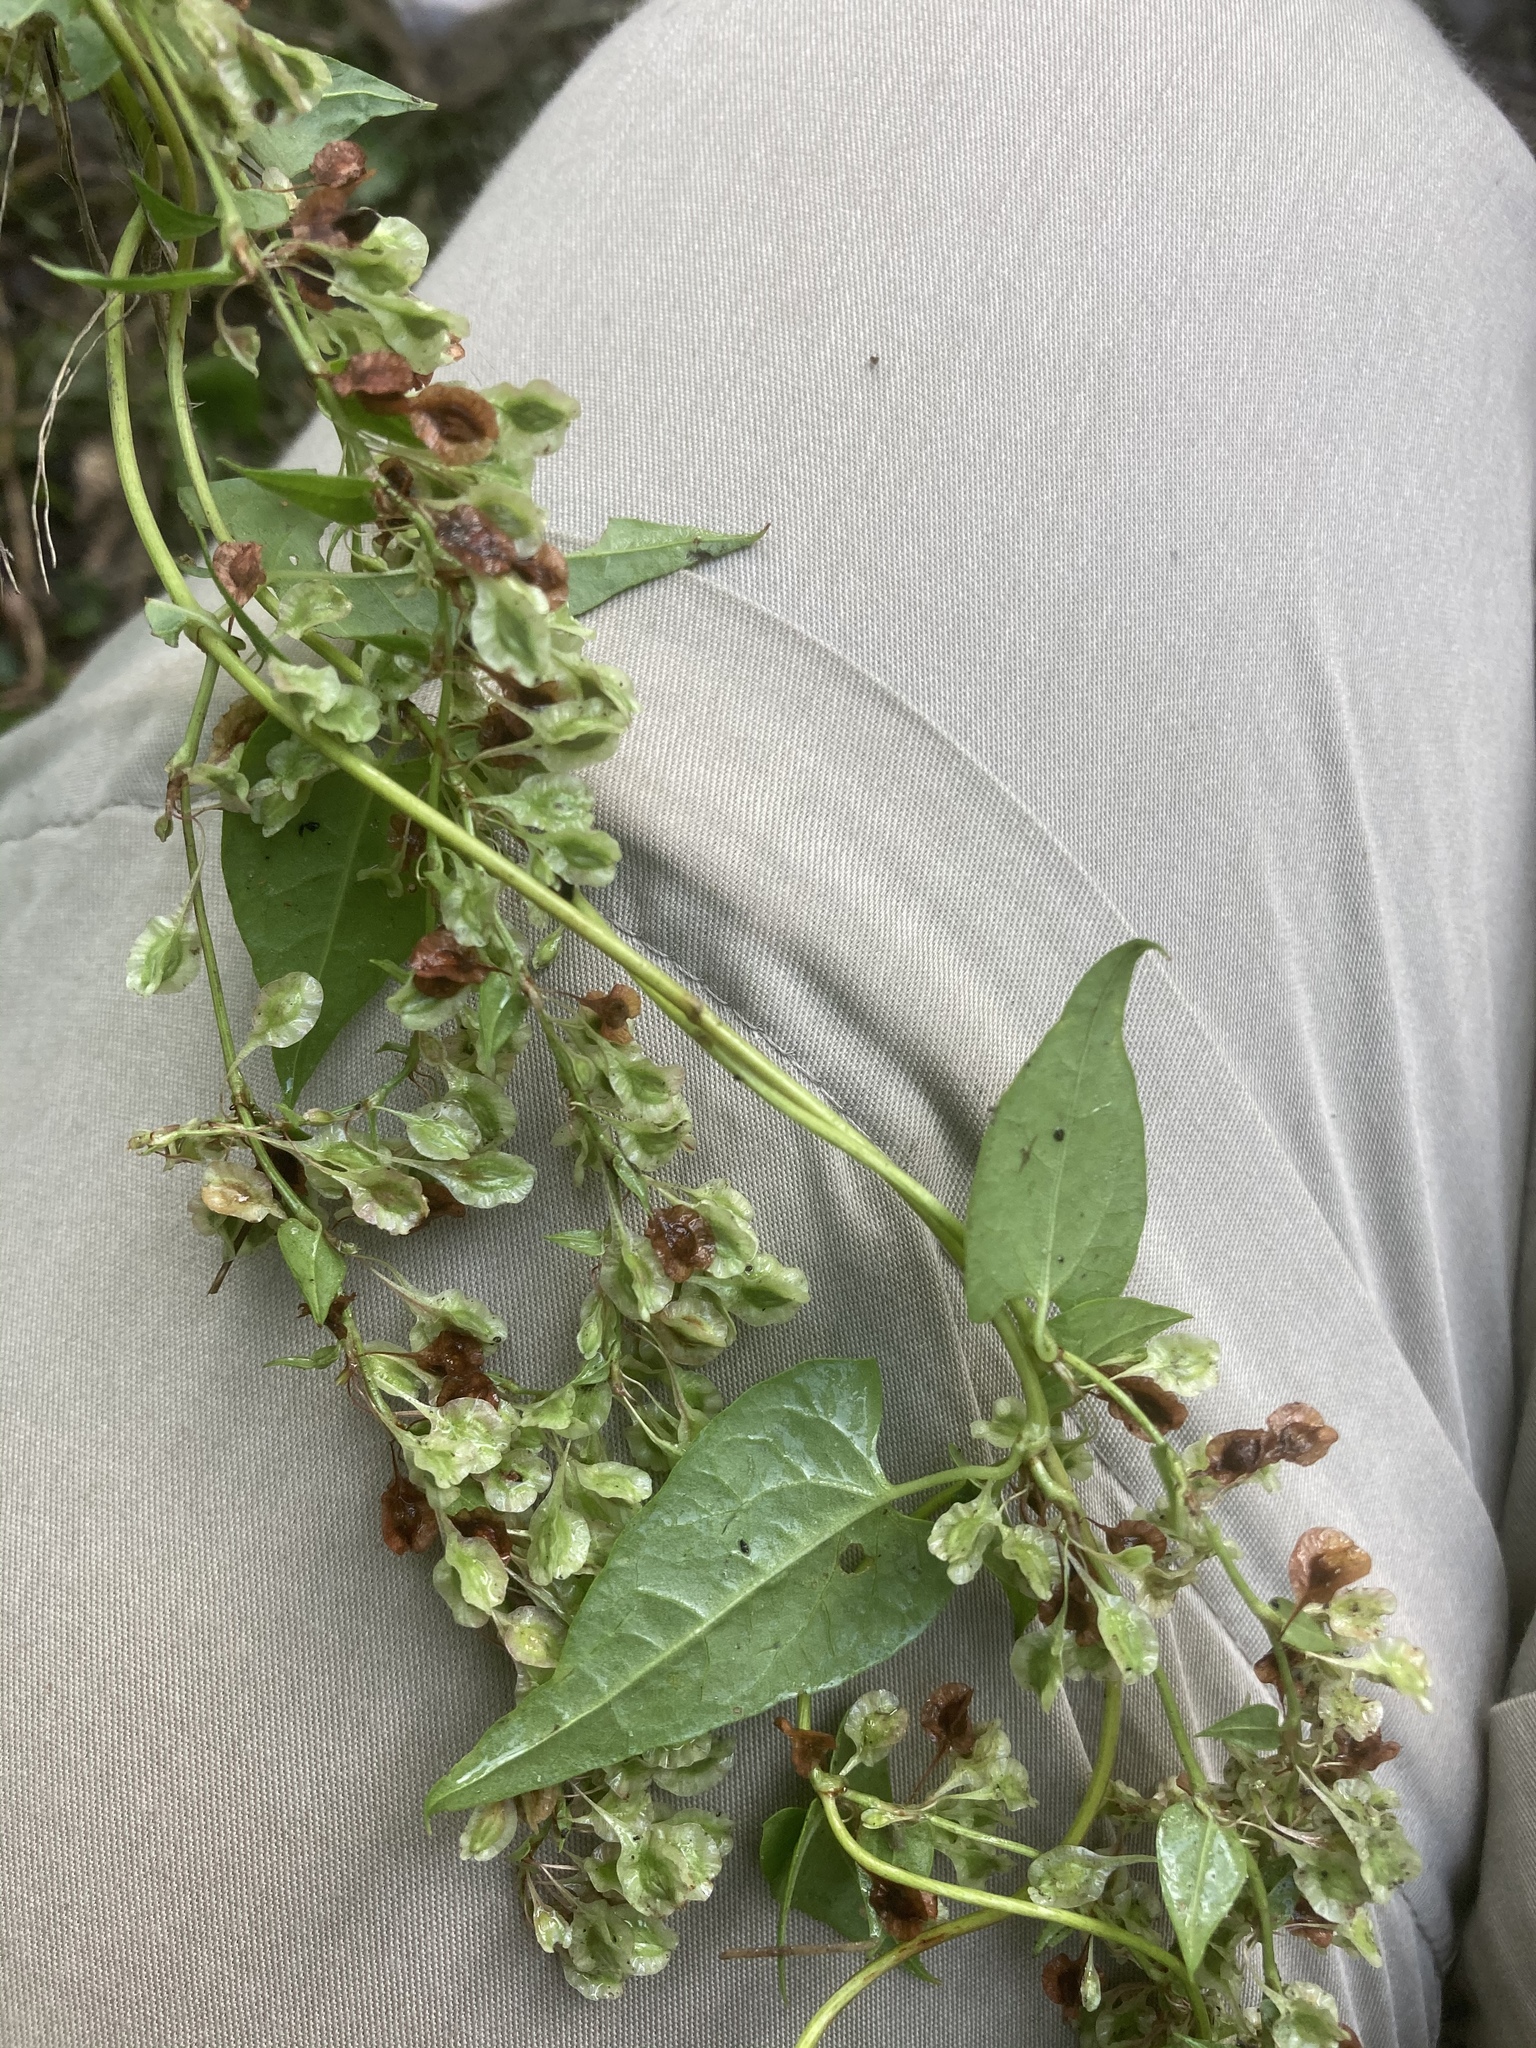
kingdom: Plantae
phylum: Tracheophyta
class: Magnoliopsida
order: Caryophyllales
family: Polygonaceae
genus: Fallopia
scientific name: Fallopia dumetorum
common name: Copse-bindweed
